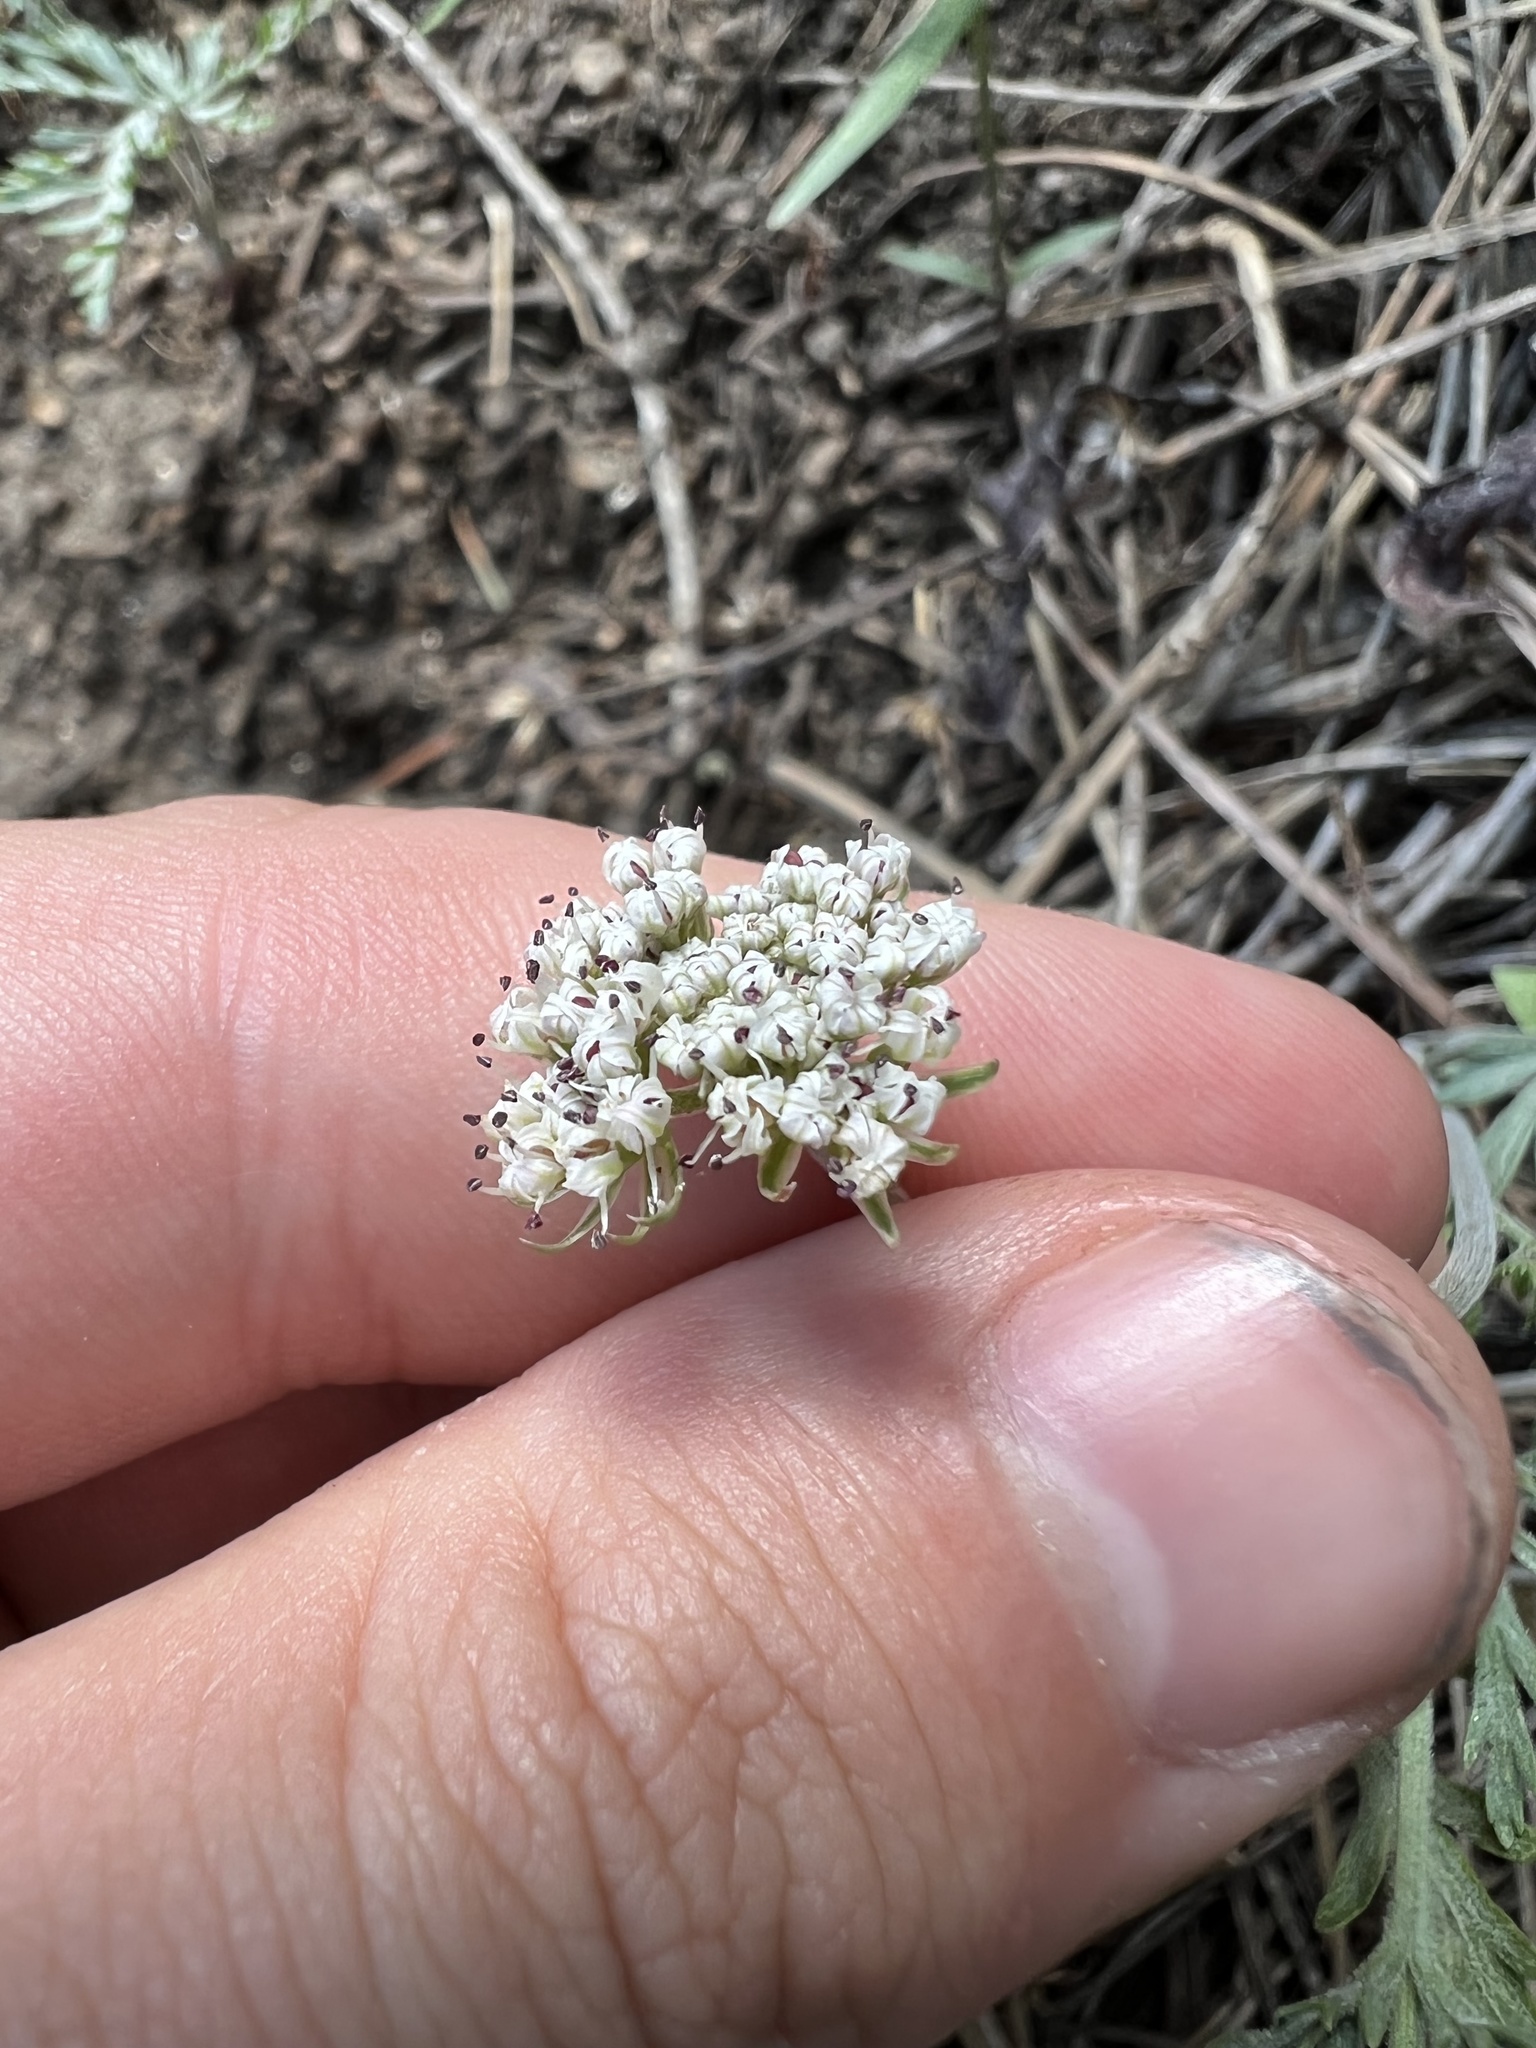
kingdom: Plantae
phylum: Tracheophyta
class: Magnoliopsida
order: Apiales
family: Apiaceae
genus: Lomatium
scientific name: Lomatium orientale
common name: Eastern cous
